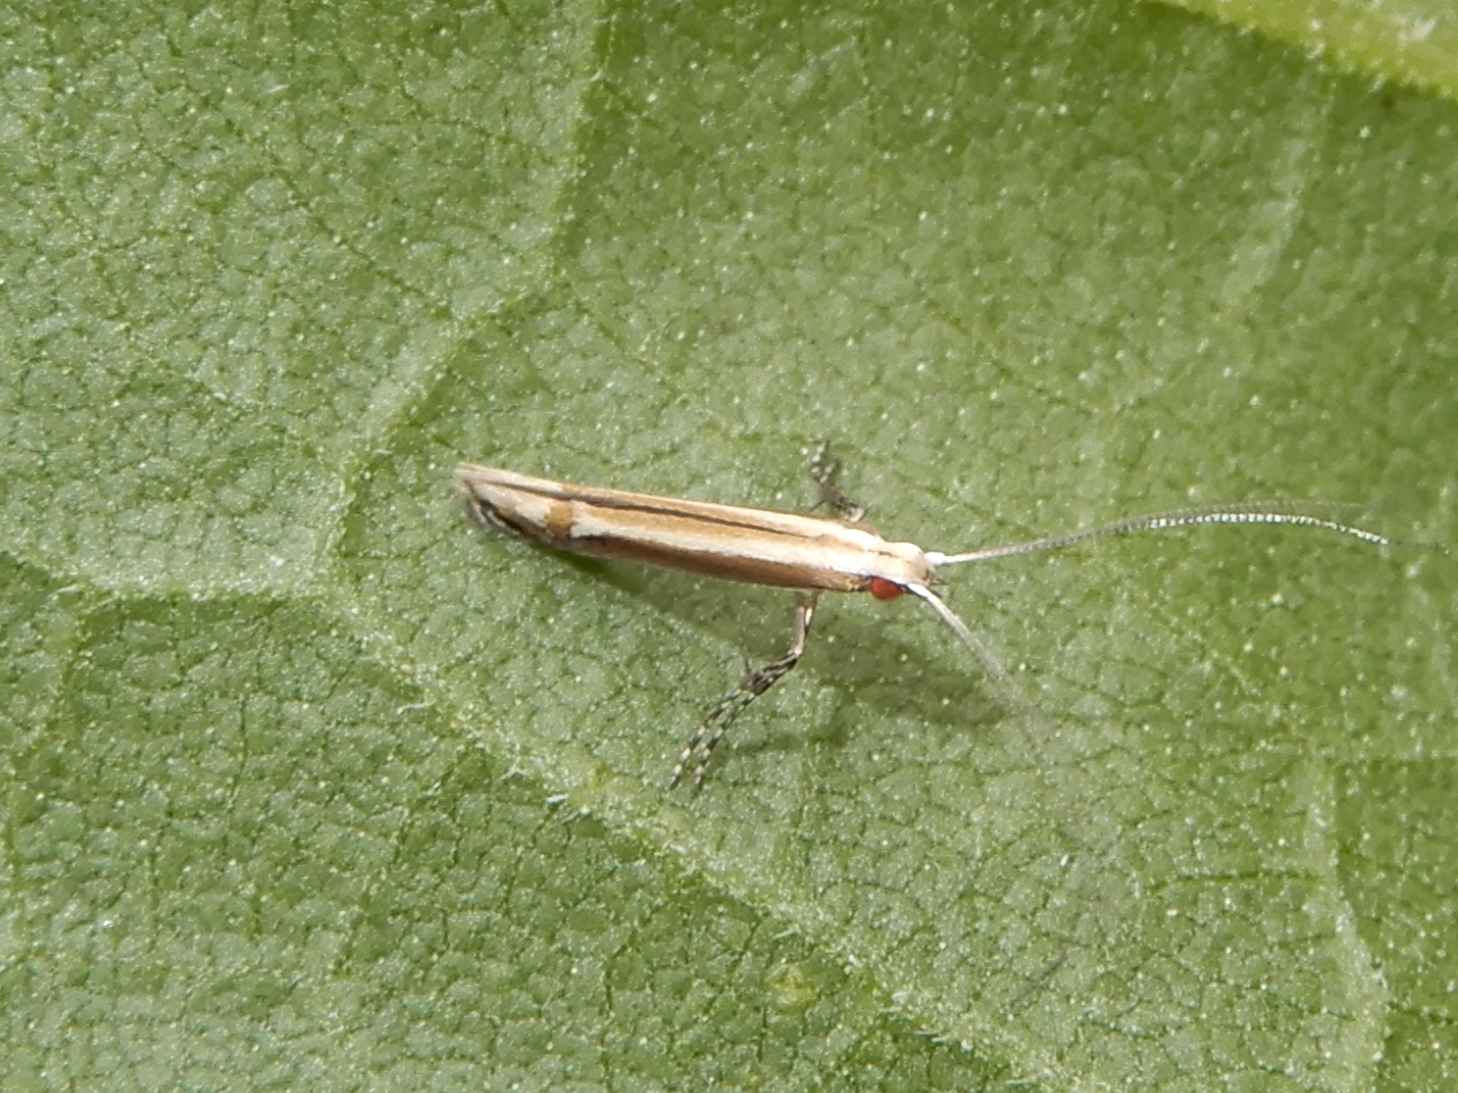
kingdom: Animalia
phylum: Arthropoda
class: Insecta
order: Lepidoptera
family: Gracillariidae
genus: Acrocercops
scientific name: Acrocercops laciniella
